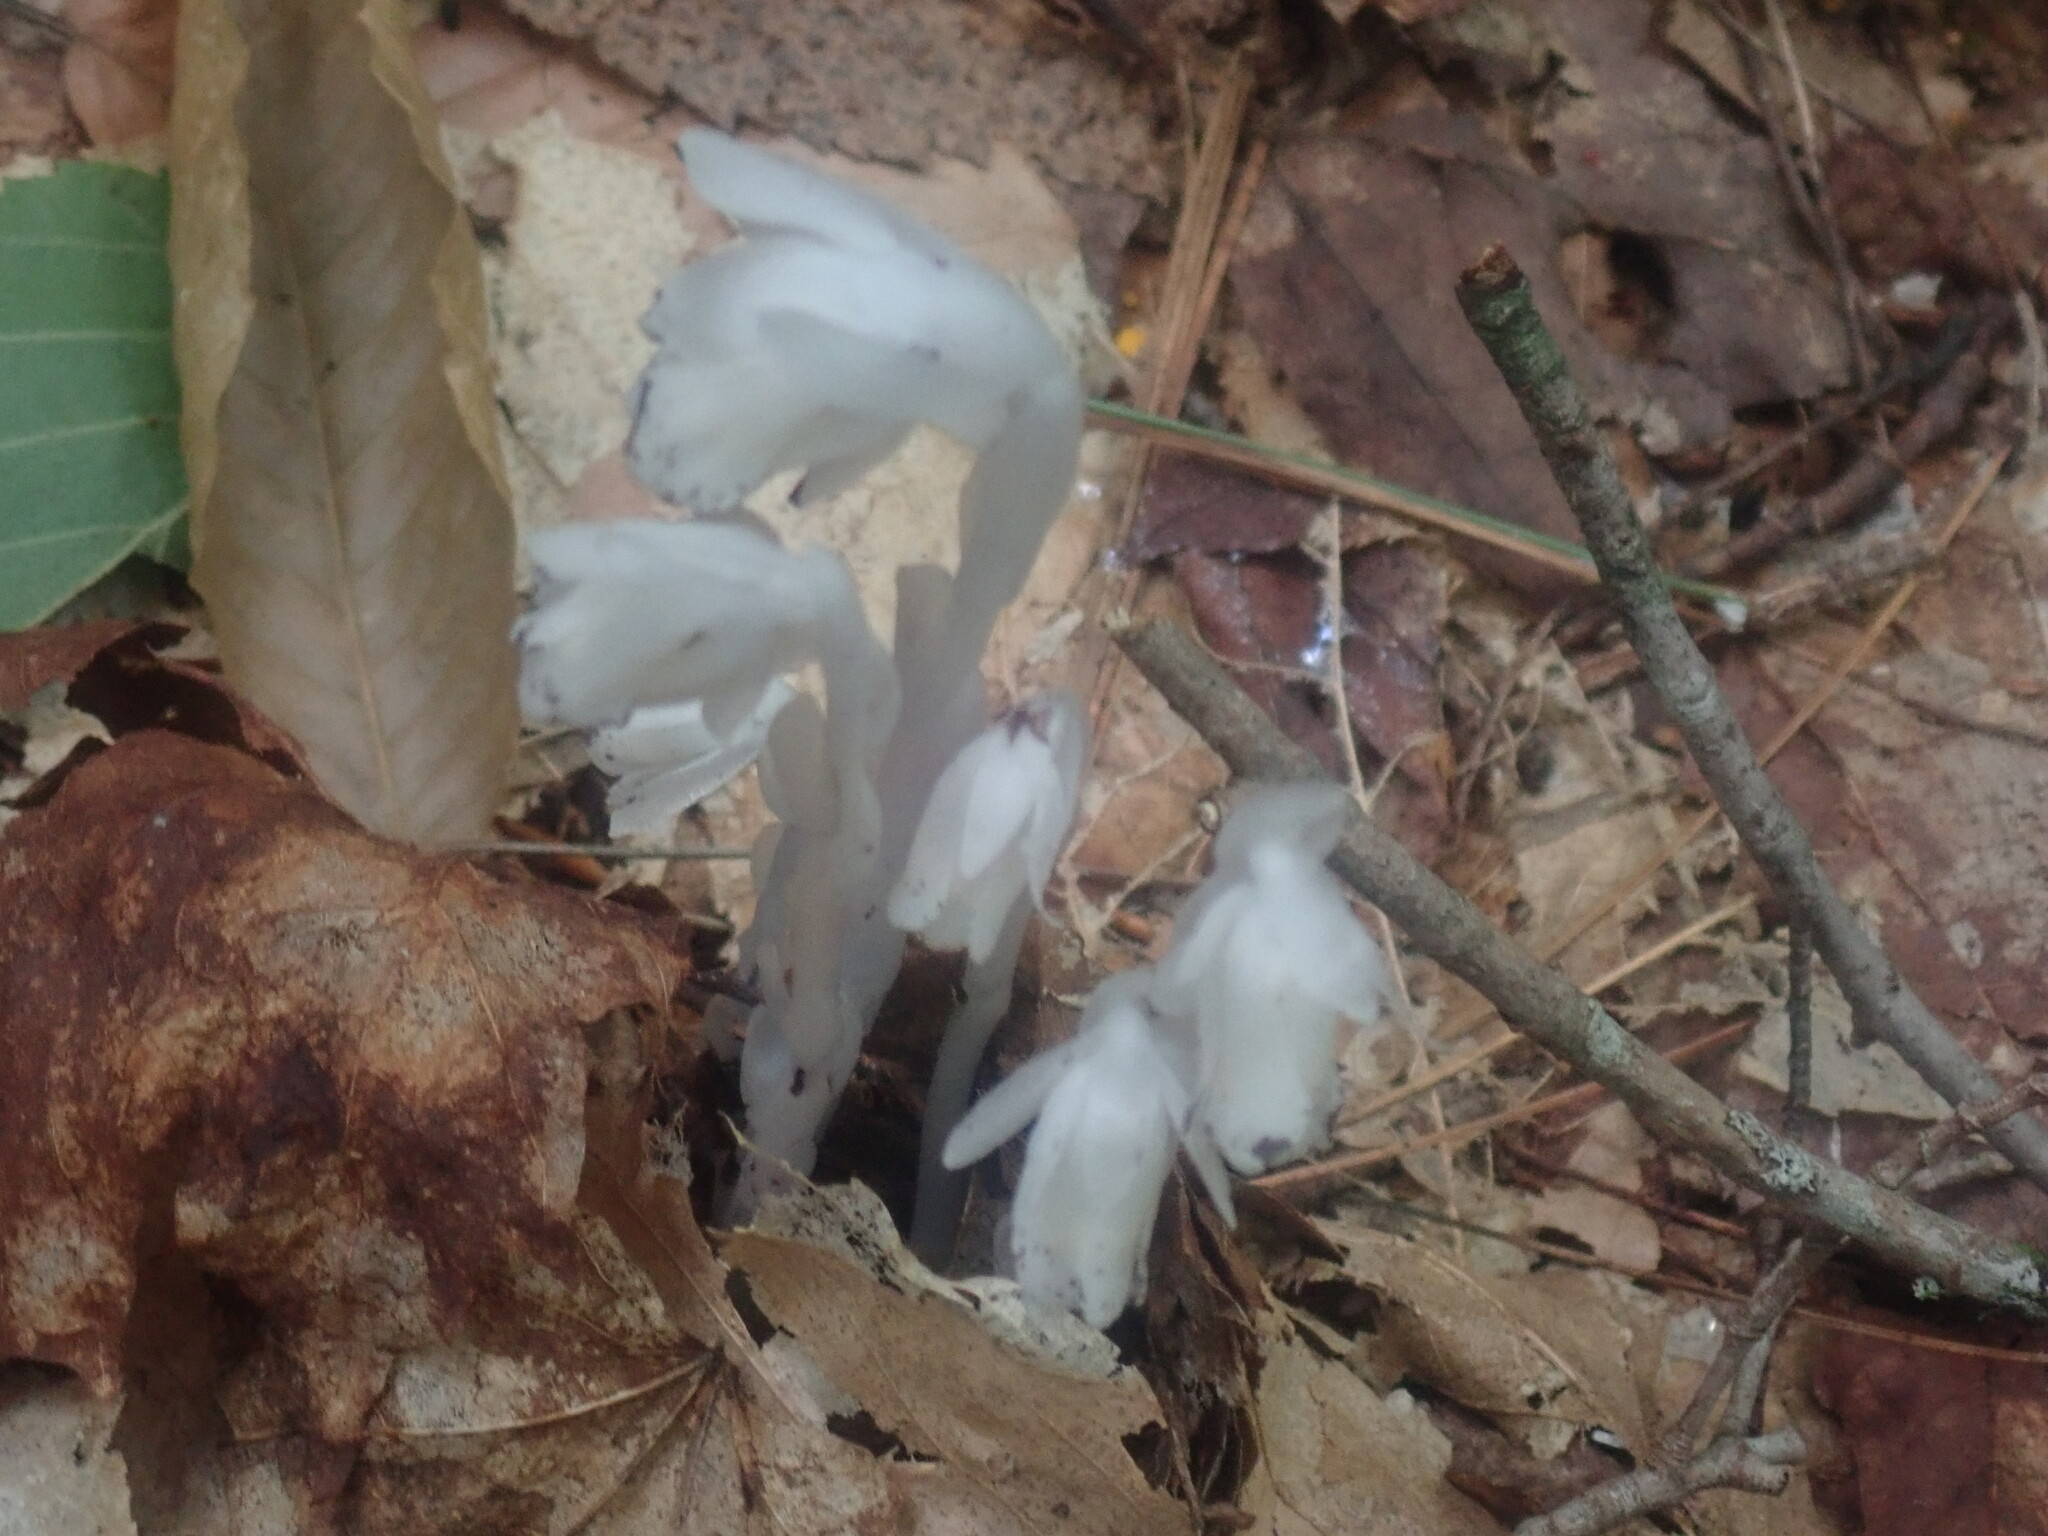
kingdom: Plantae
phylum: Tracheophyta
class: Magnoliopsida
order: Ericales
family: Ericaceae
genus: Monotropa
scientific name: Monotropa uniflora
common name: Convulsion root
